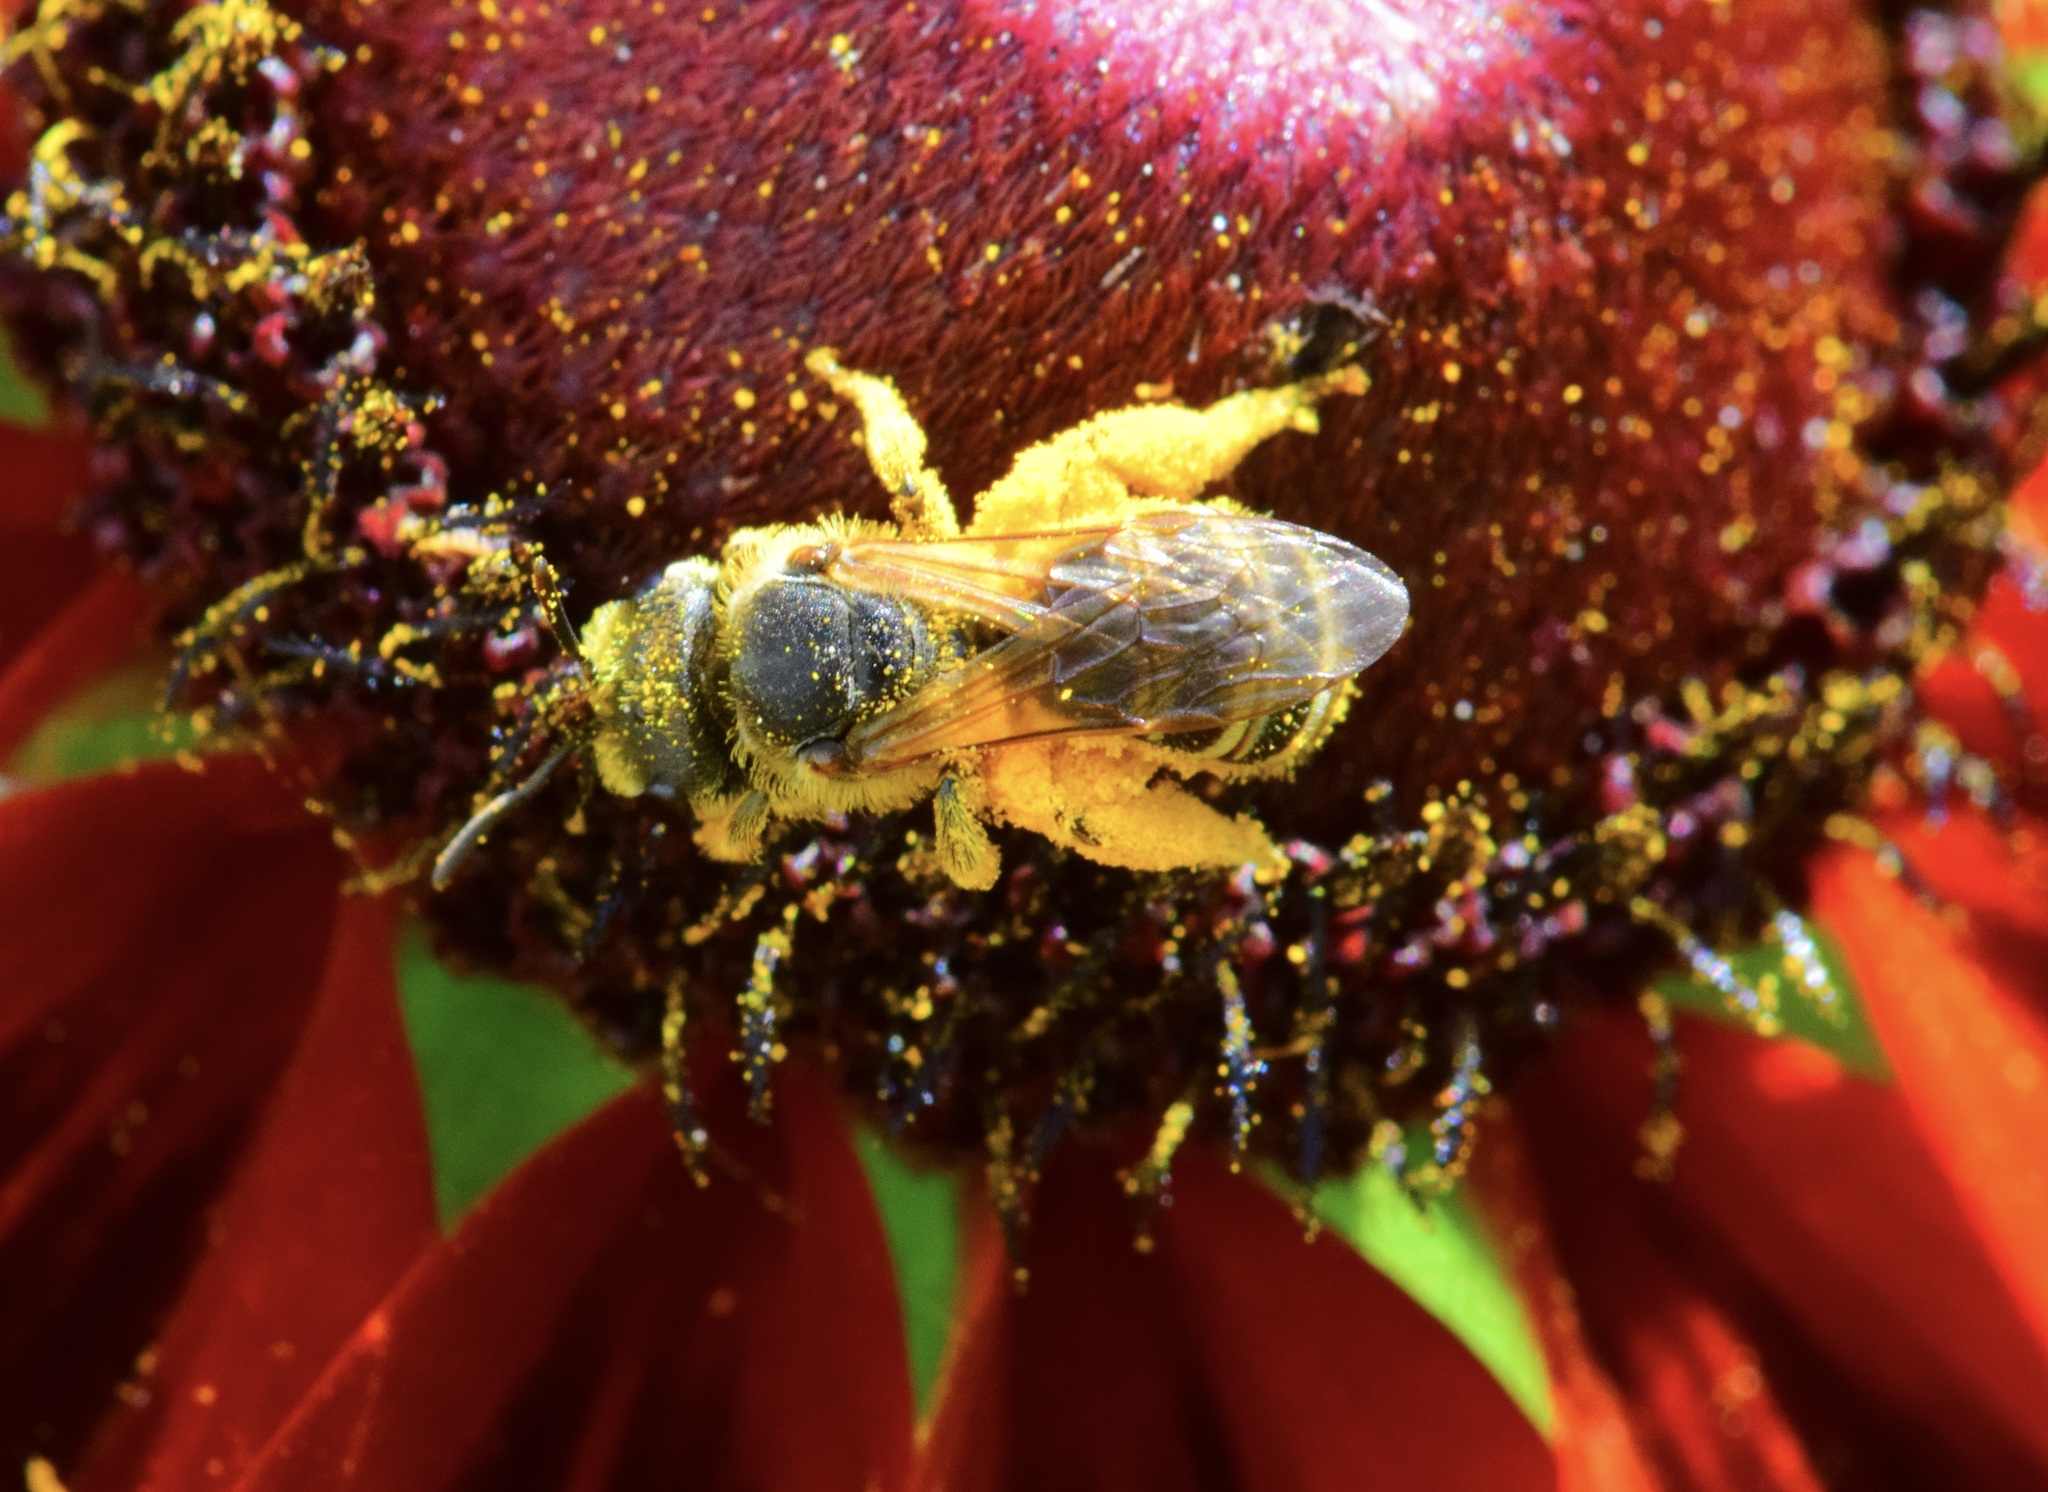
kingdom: Animalia
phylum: Arthropoda
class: Insecta
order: Hymenoptera
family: Halictidae
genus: Halictus
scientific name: Halictus ligatus
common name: Ligated furrow bee
